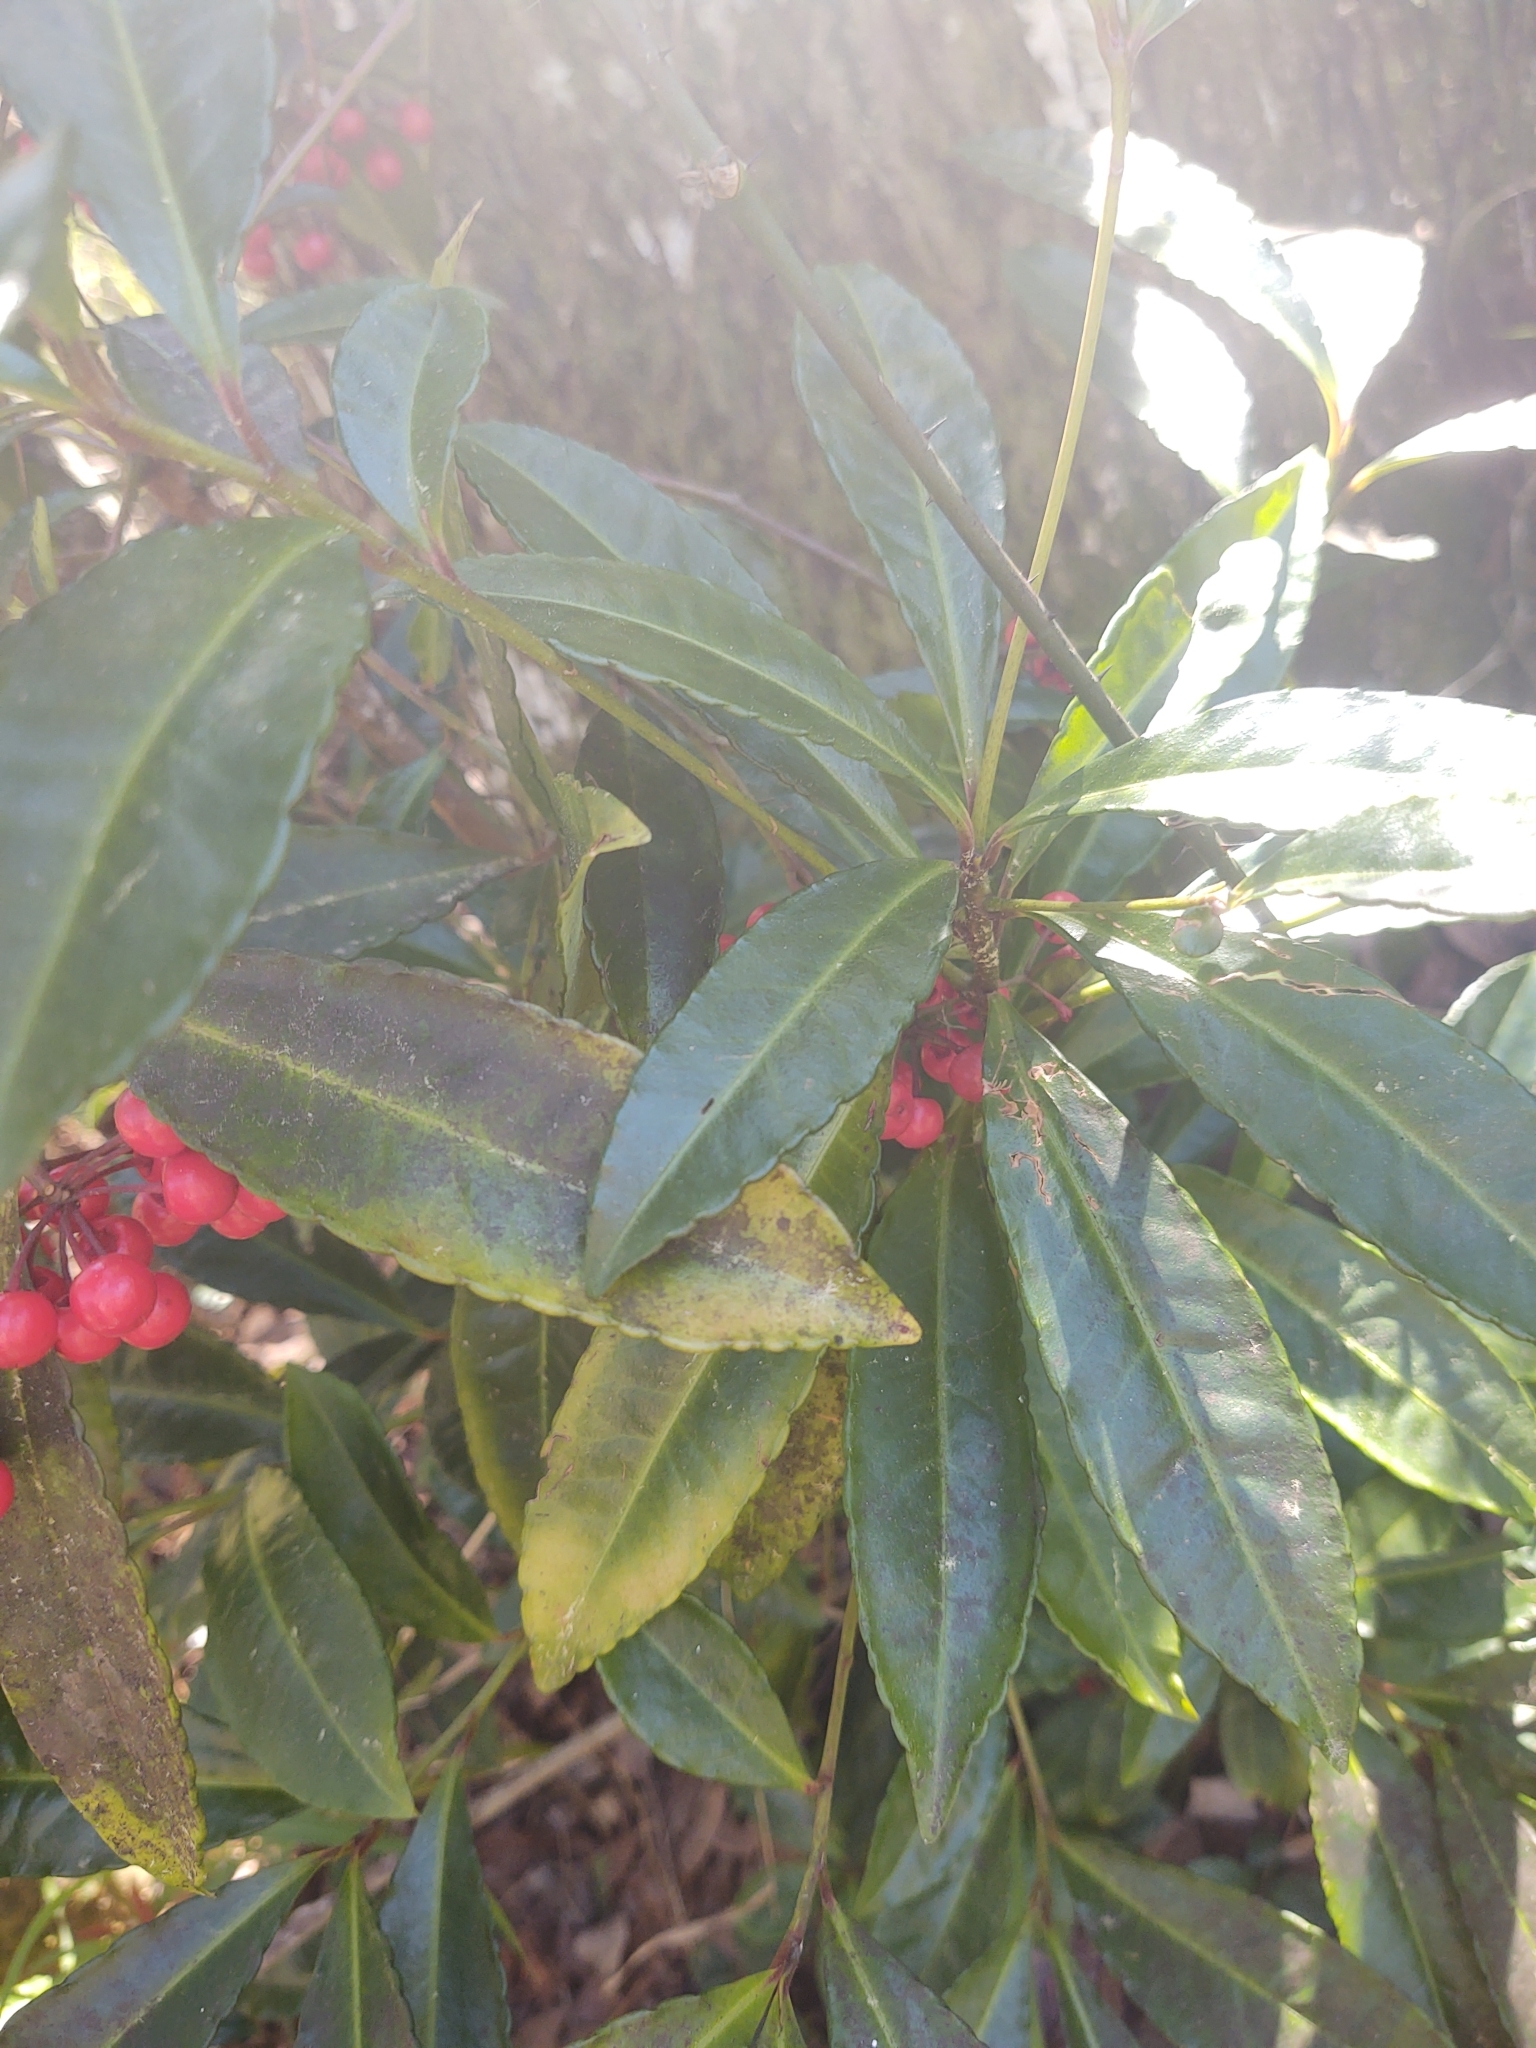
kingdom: Plantae
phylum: Tracheophyta
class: Magnoliopsida
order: Ericales
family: Primulaceae
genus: Ardisia
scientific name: Ardisia crenata
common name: Hen's eyes
